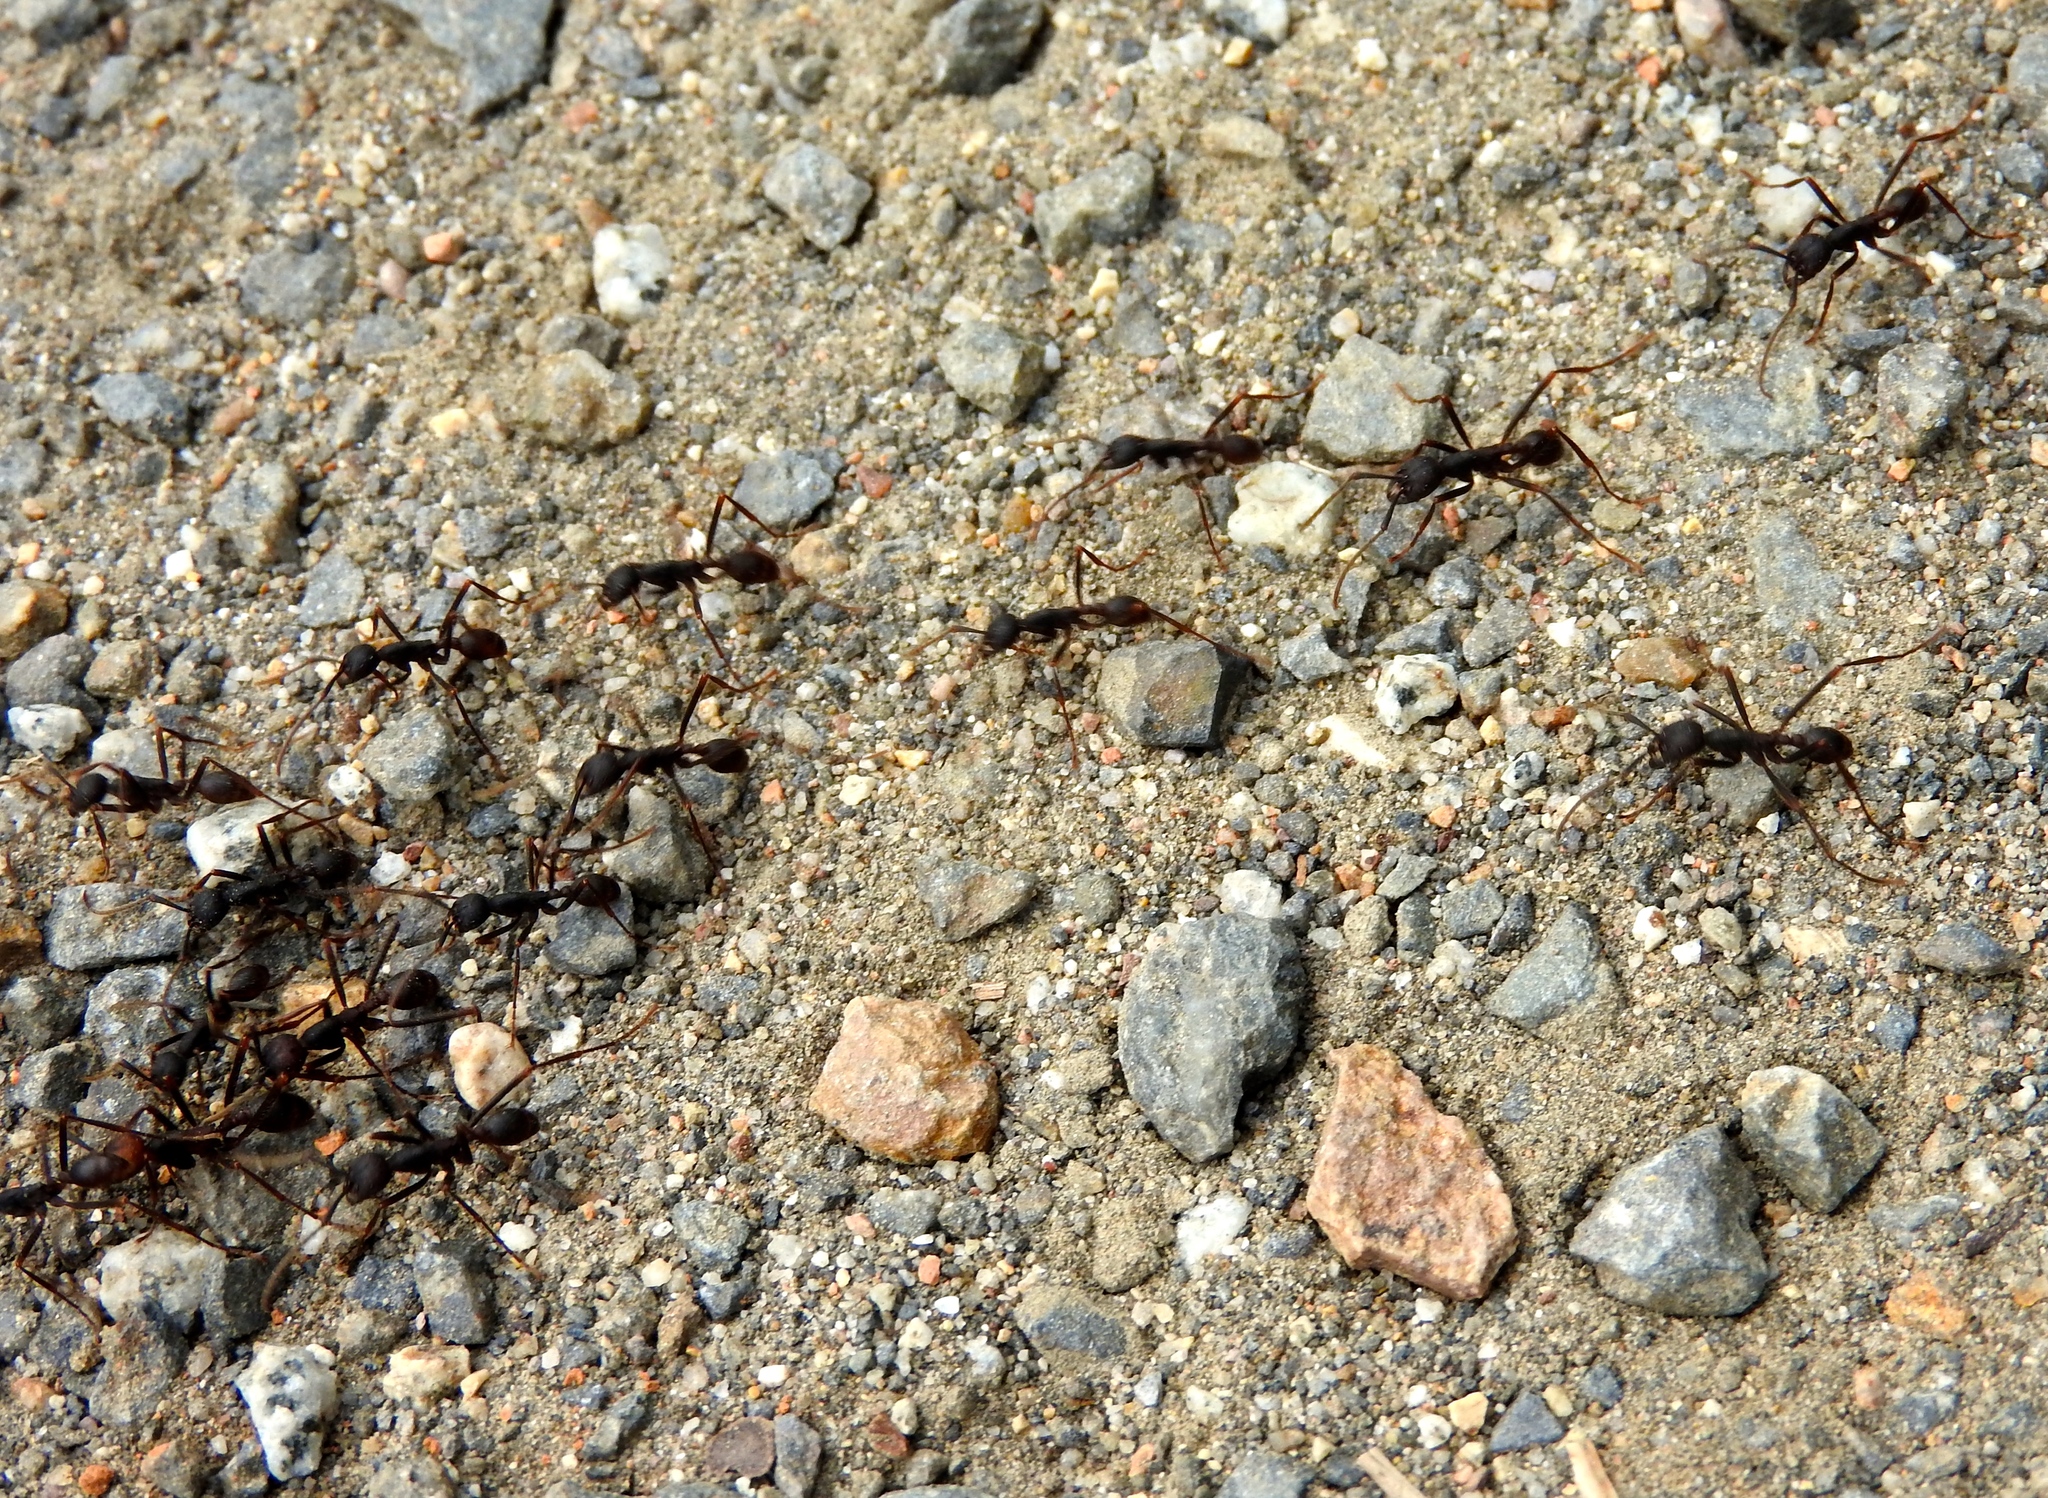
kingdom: Animalia
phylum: Arthropoda
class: Insecta
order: Hymenoptera
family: Formicidae
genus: Eciton
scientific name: Eciton burchellii
